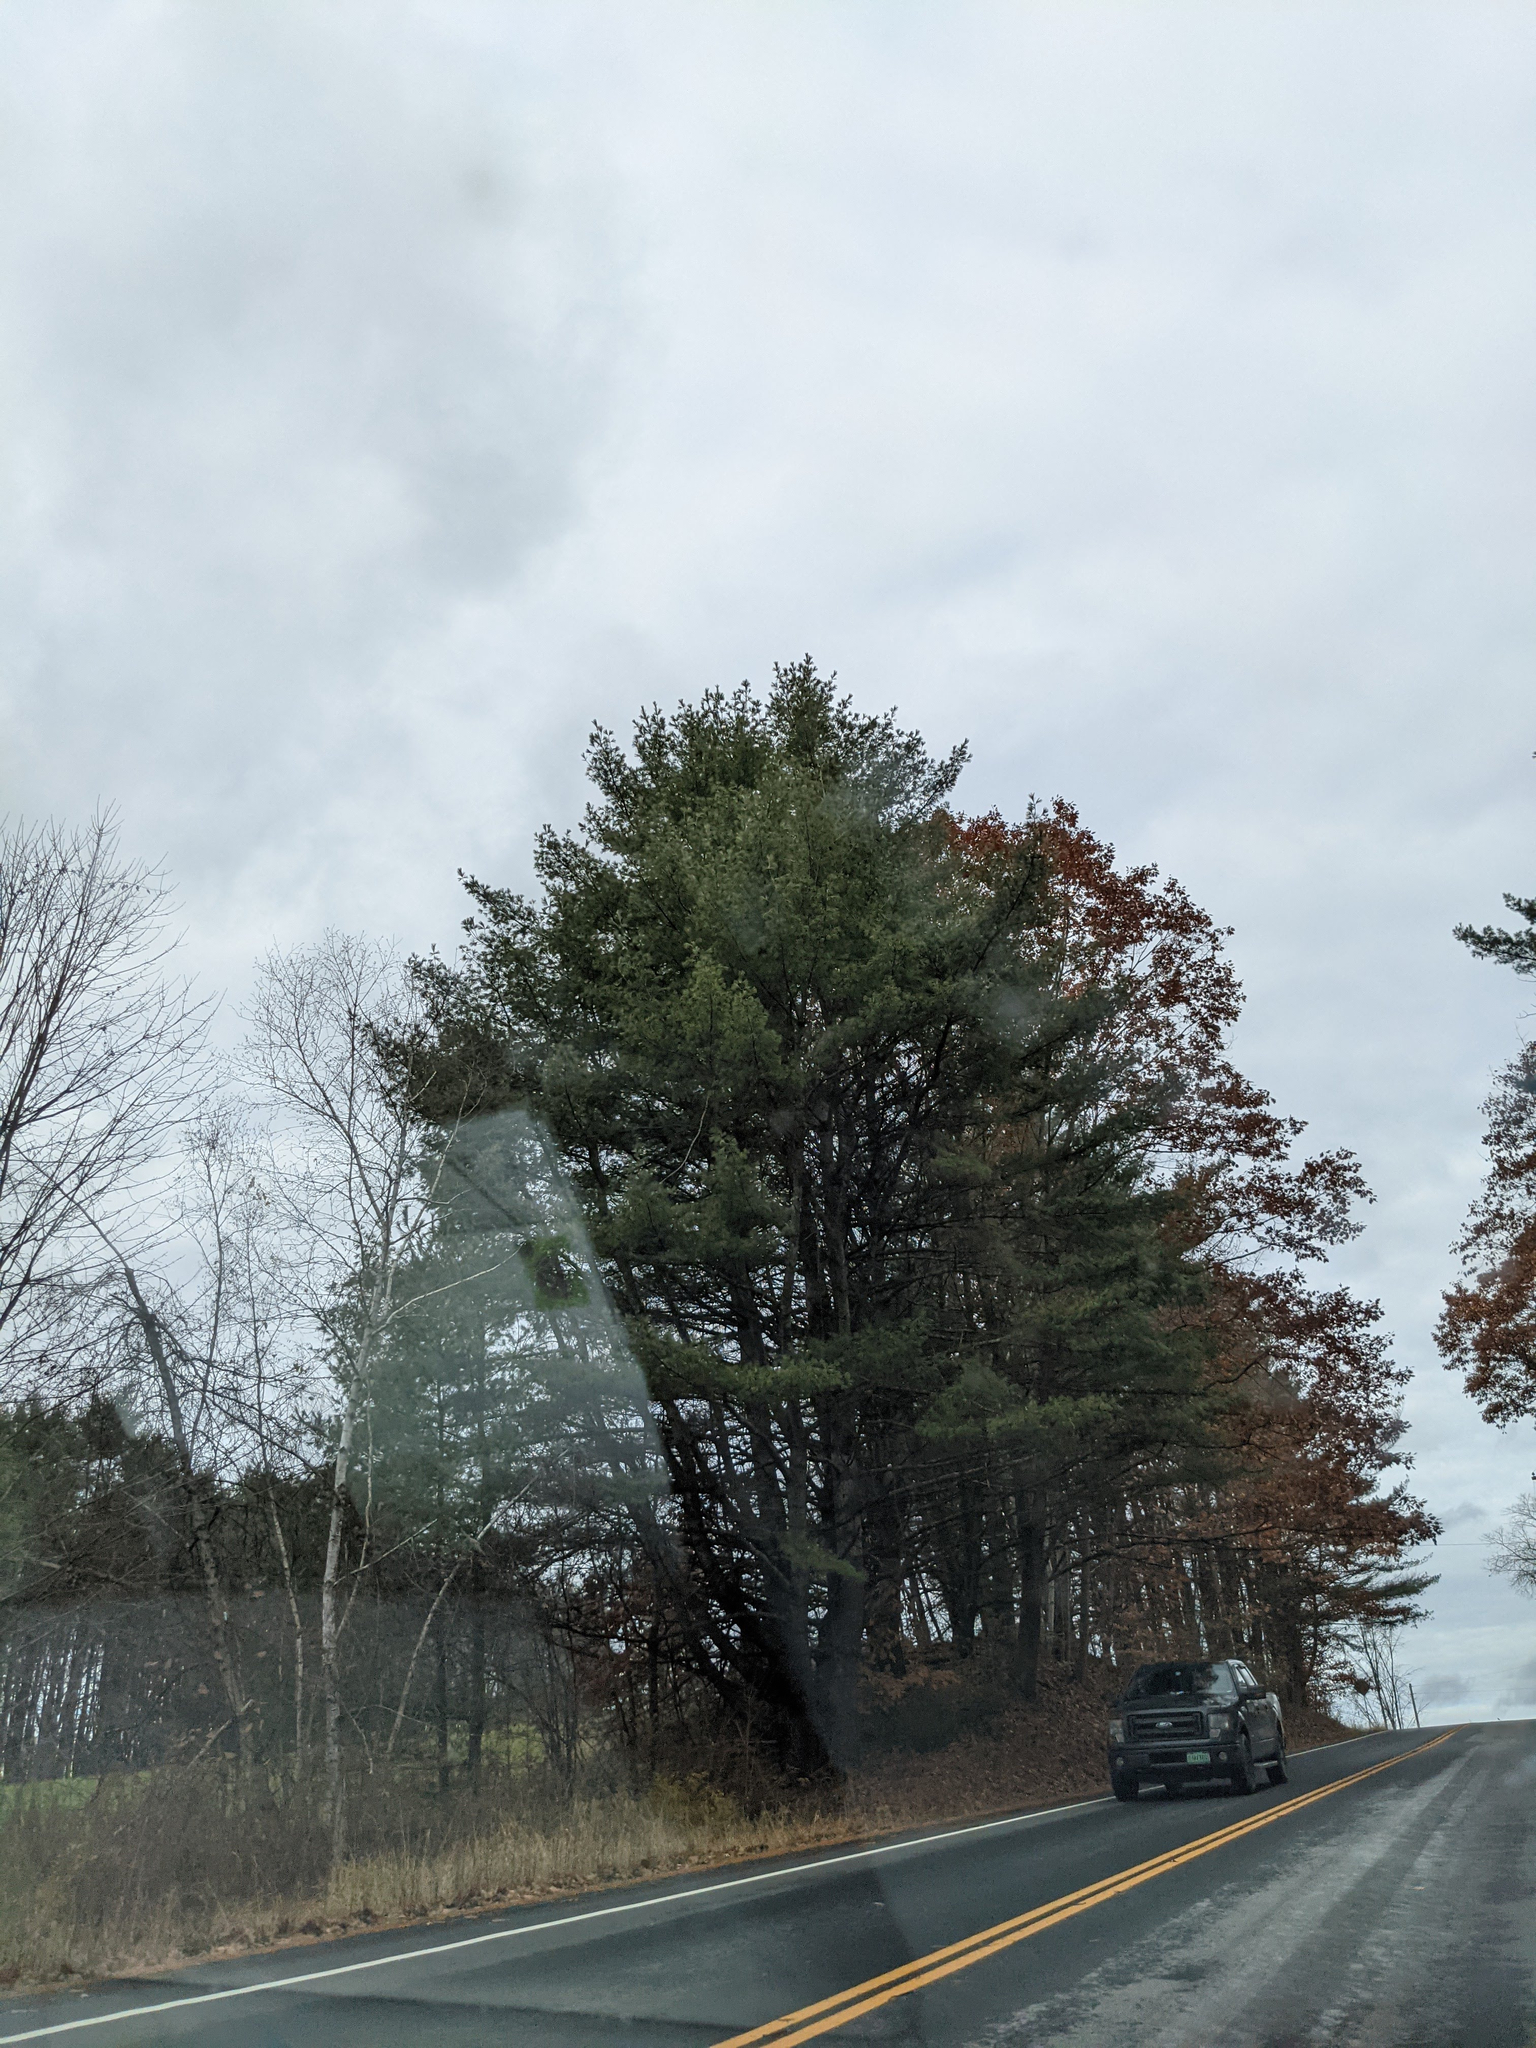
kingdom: Plantae
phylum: Tracheophyta
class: Pinopsida
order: Pinales
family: Pinaceae
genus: Pinus
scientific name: Pinus strobus
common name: Weymouth pine
